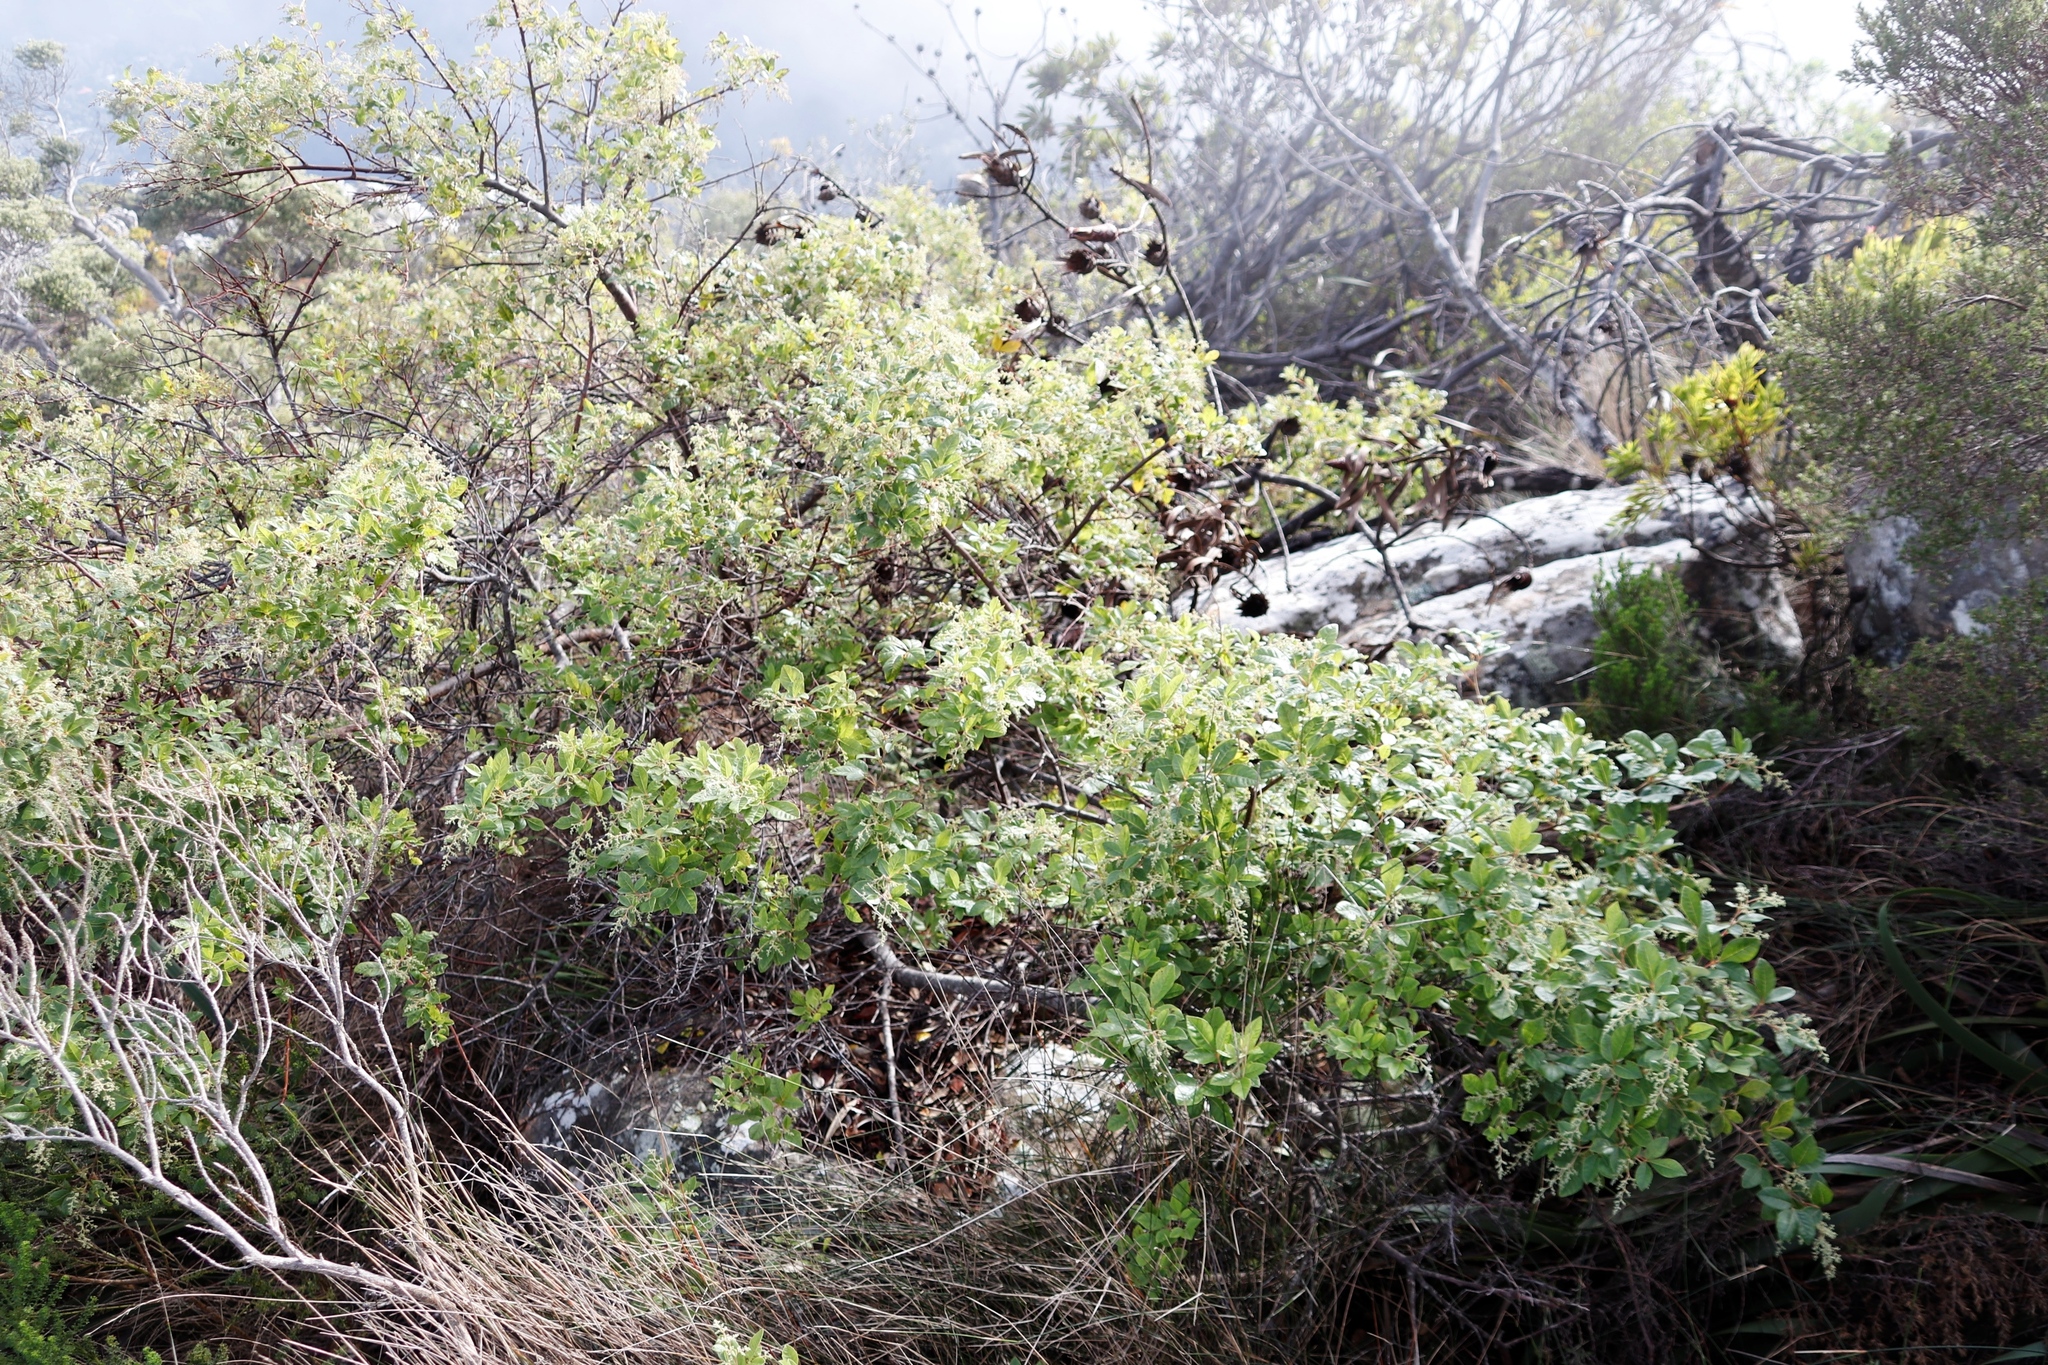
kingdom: Plantae
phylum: Tracheophyta
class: Magnoliopsida
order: Sapindales
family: Anacardiaceae
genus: Searsia
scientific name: Searsia tomentosa
